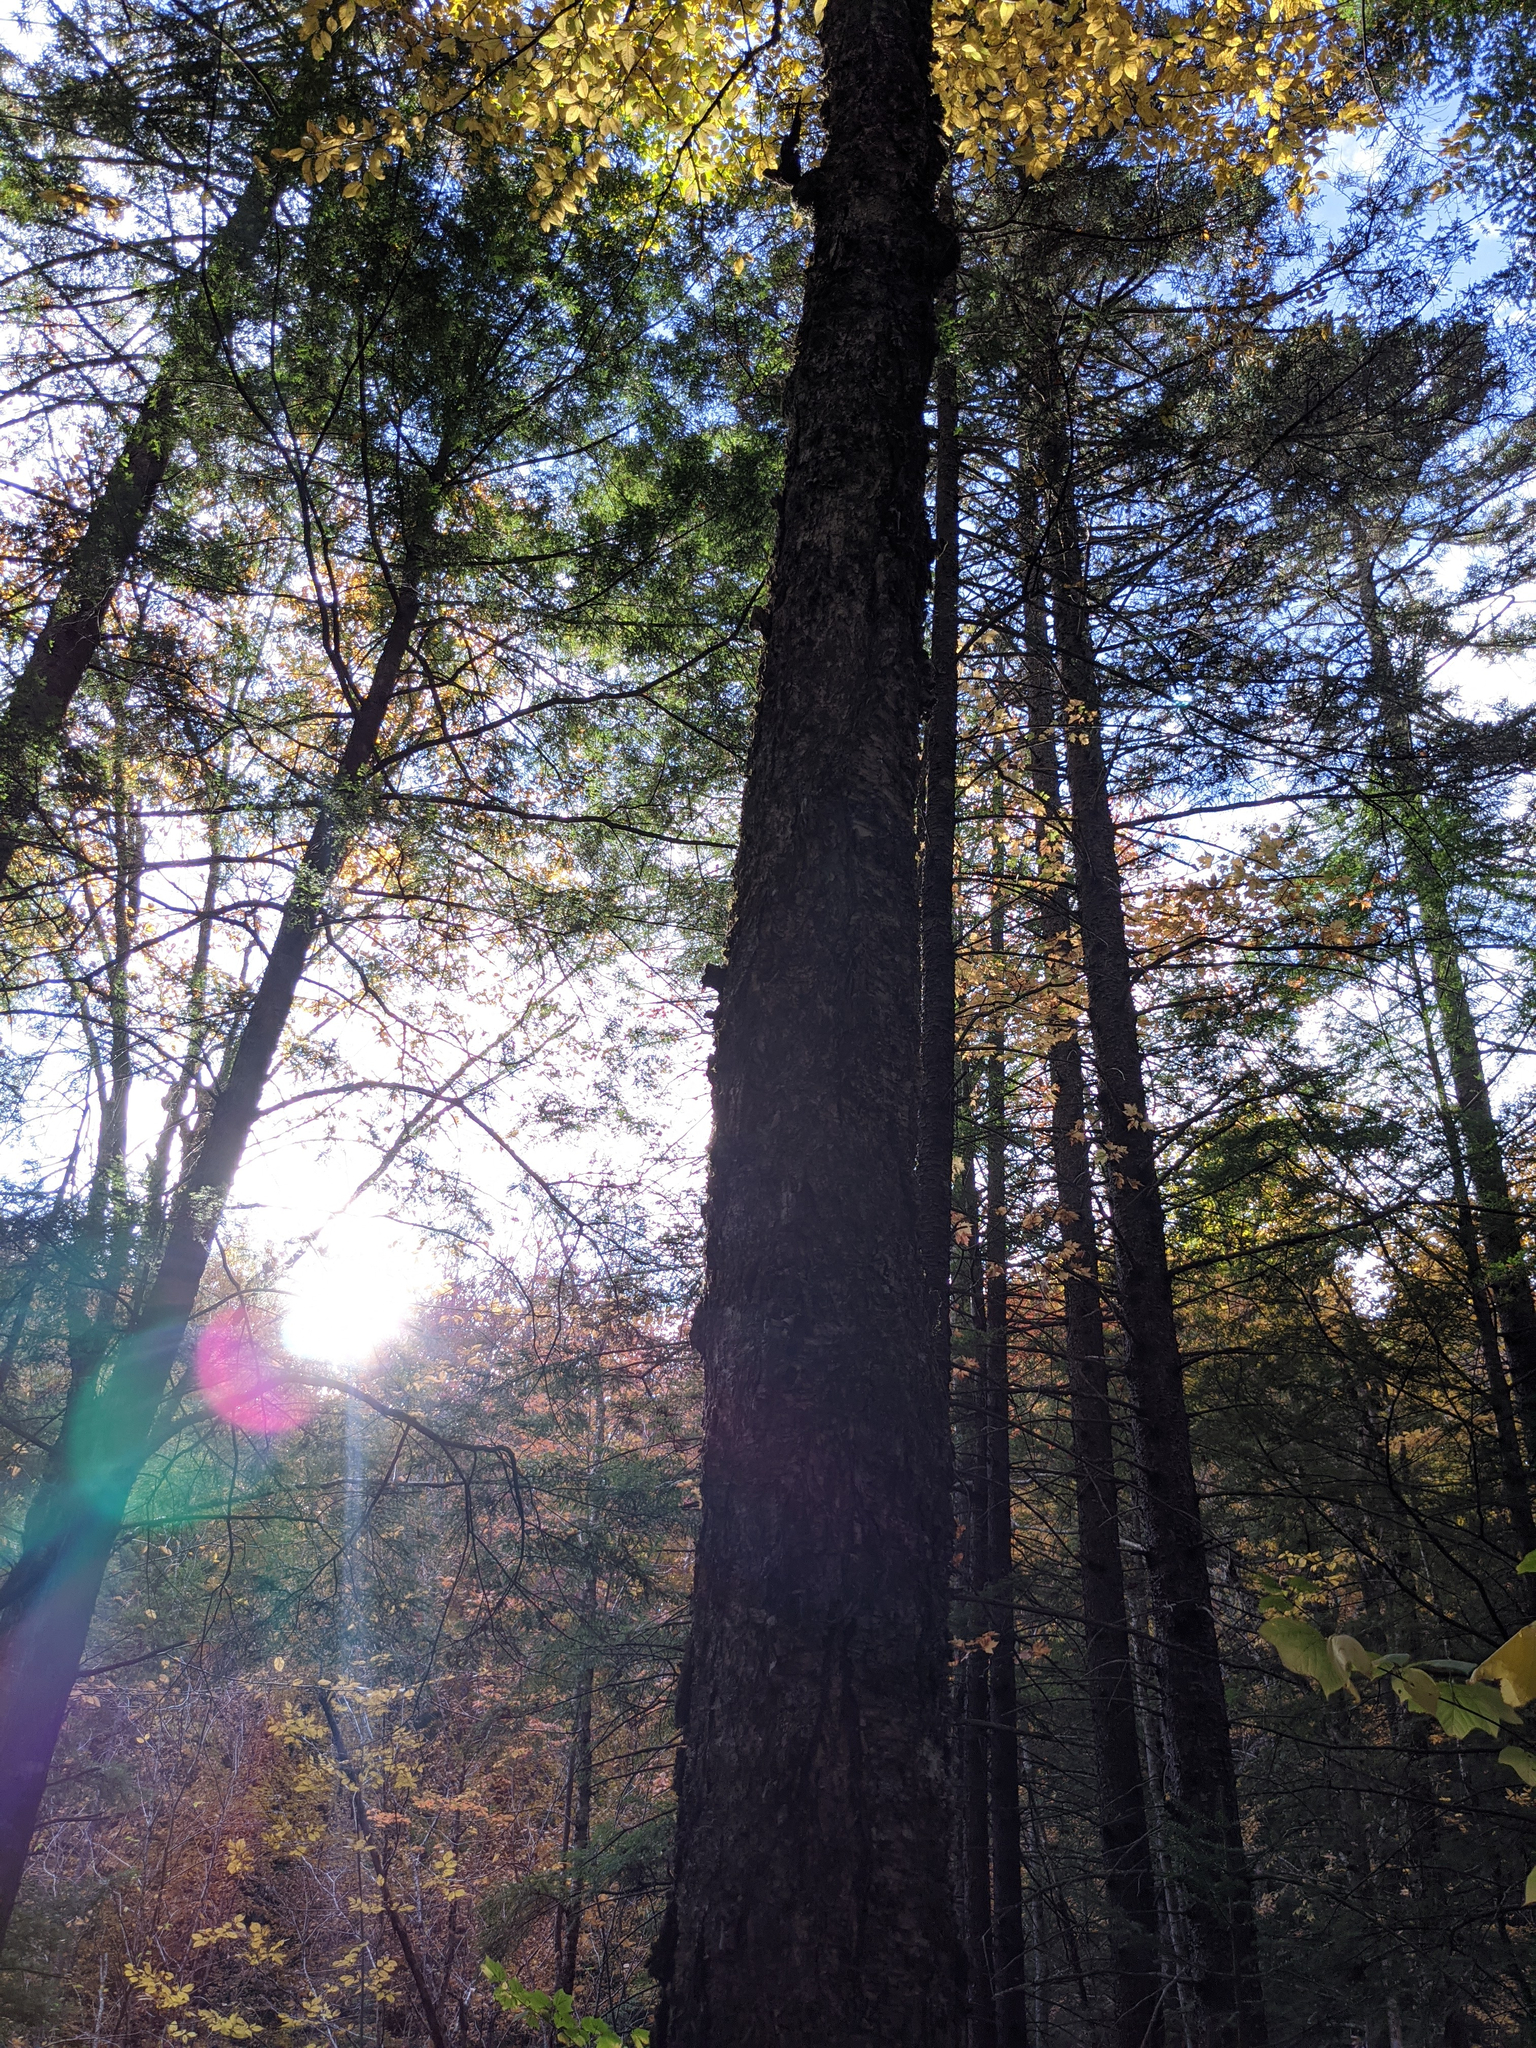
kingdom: Plantae
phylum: Tracheophyta
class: Magnoliopsida
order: Fagales
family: Betulaceae
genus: Betula
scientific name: Betula alleghaniensis
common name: Yellow birch
